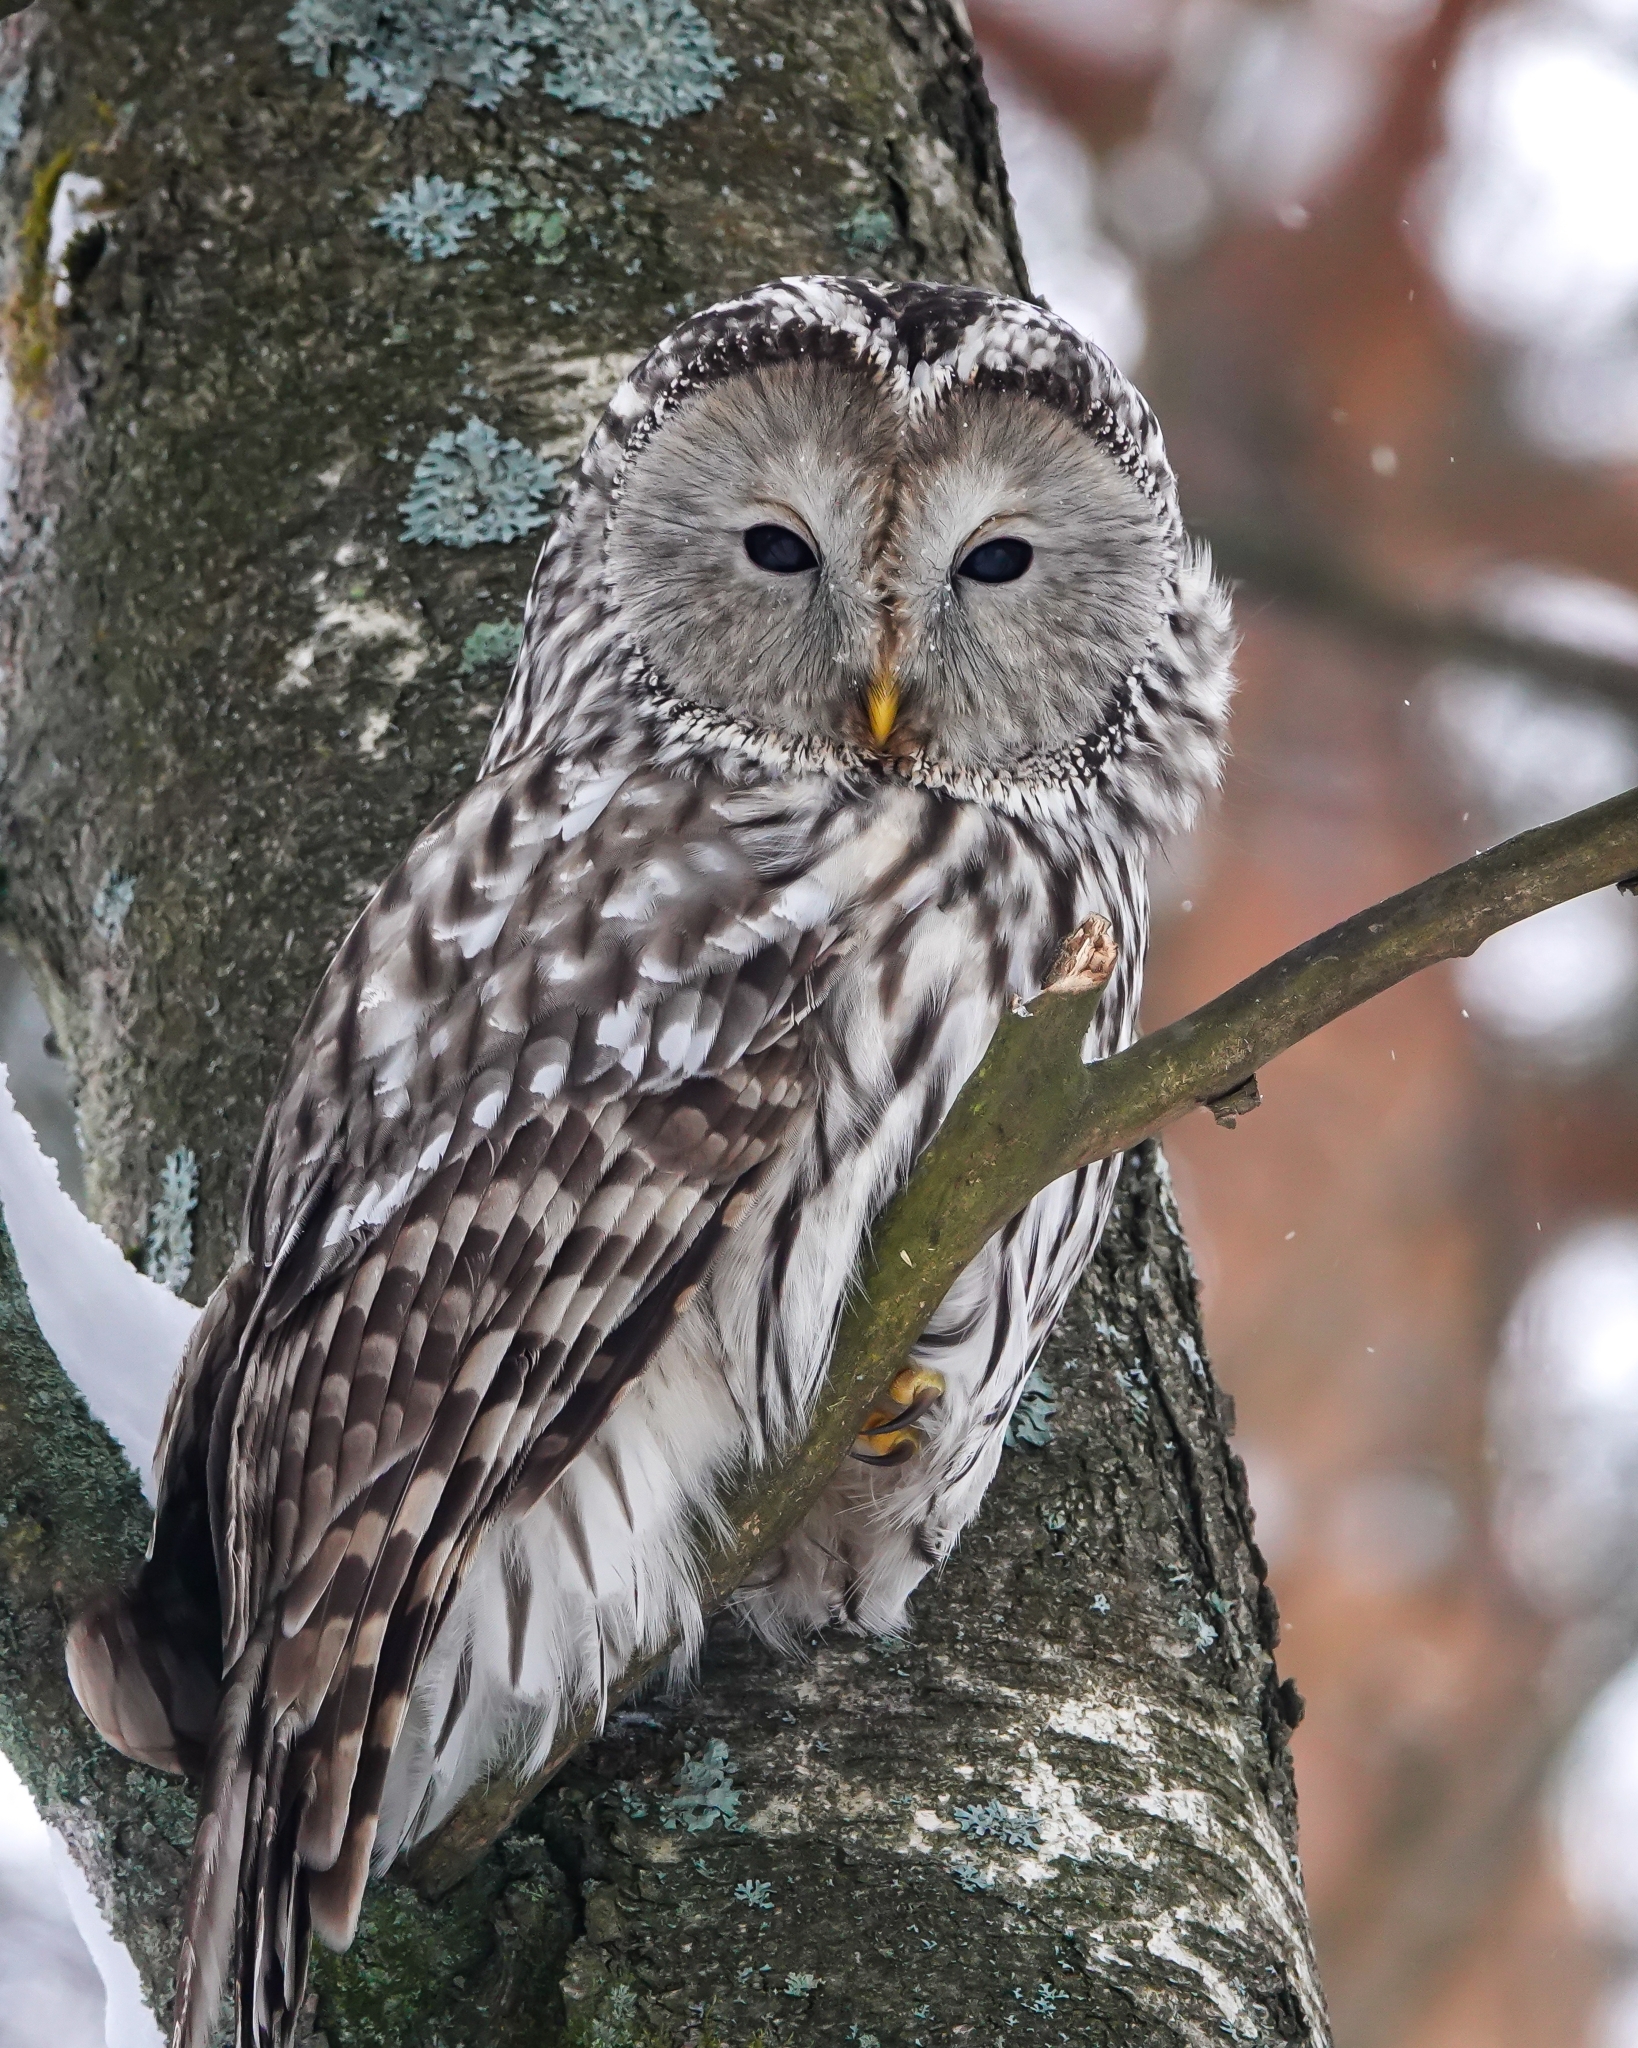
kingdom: Animalia
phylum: Chordata
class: Aves
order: Strigiformes
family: Strigidae
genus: Strix
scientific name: Strix uralensis
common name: Ural owl
